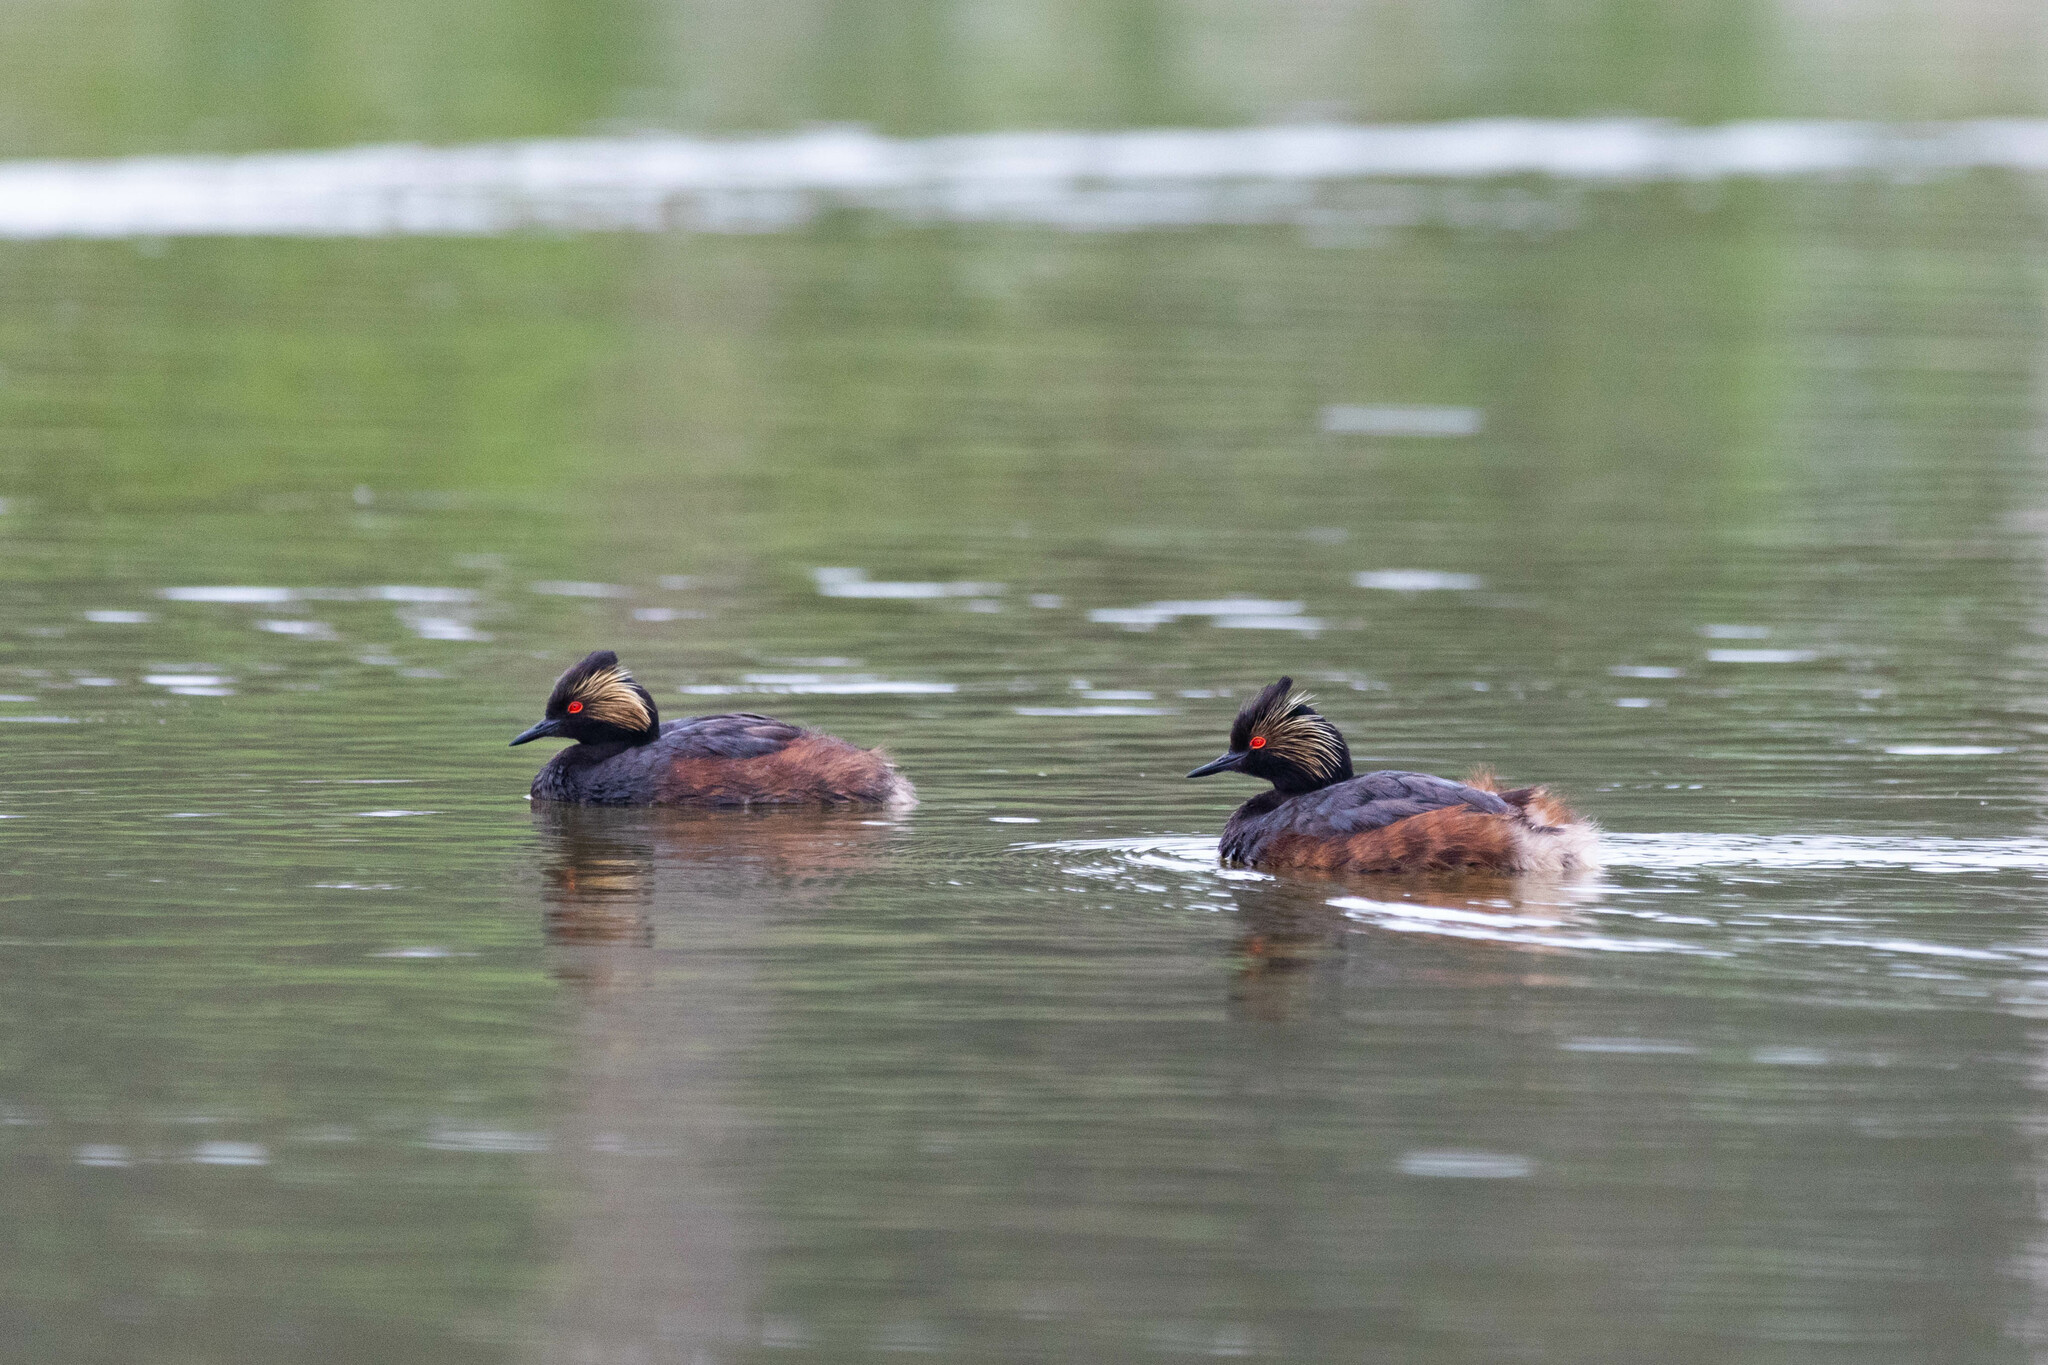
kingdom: Animalia
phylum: Chordata
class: Aves
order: Podicipediformes
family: Podicipedidae
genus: Podiceps
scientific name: Podiceps nigricollis
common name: Black-necked grebe
